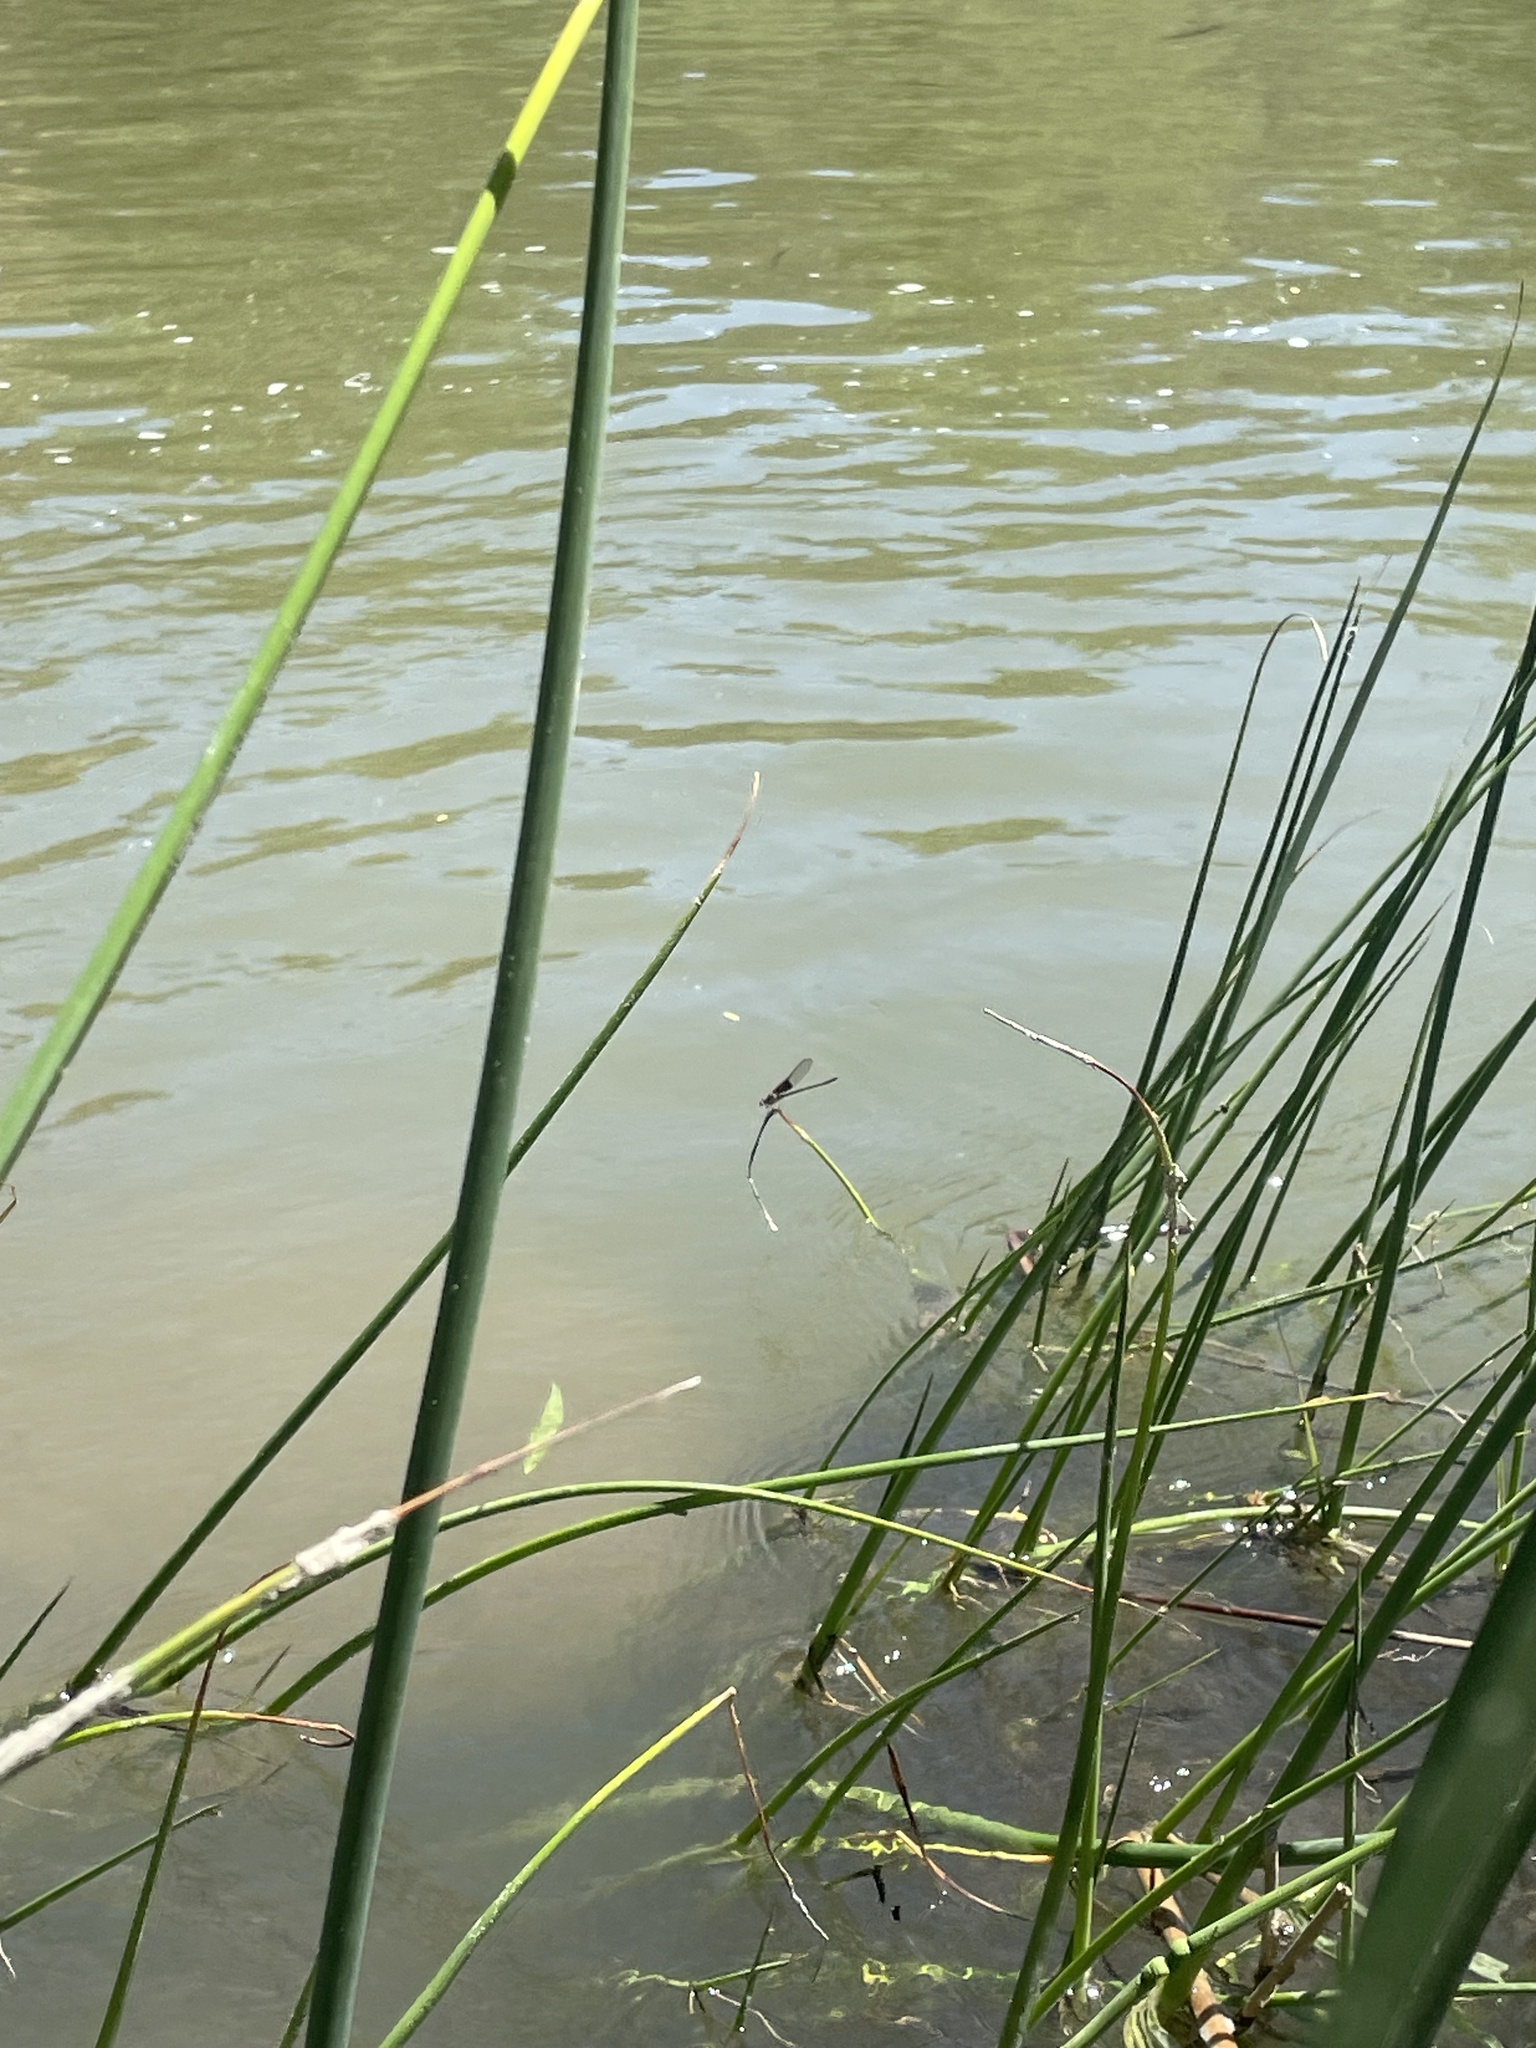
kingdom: Animalia
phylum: Arthropoda
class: Insecta
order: Odonata
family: Calopterygidae
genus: Hetaerina
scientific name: Hetaerina americana
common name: American rubyspot
